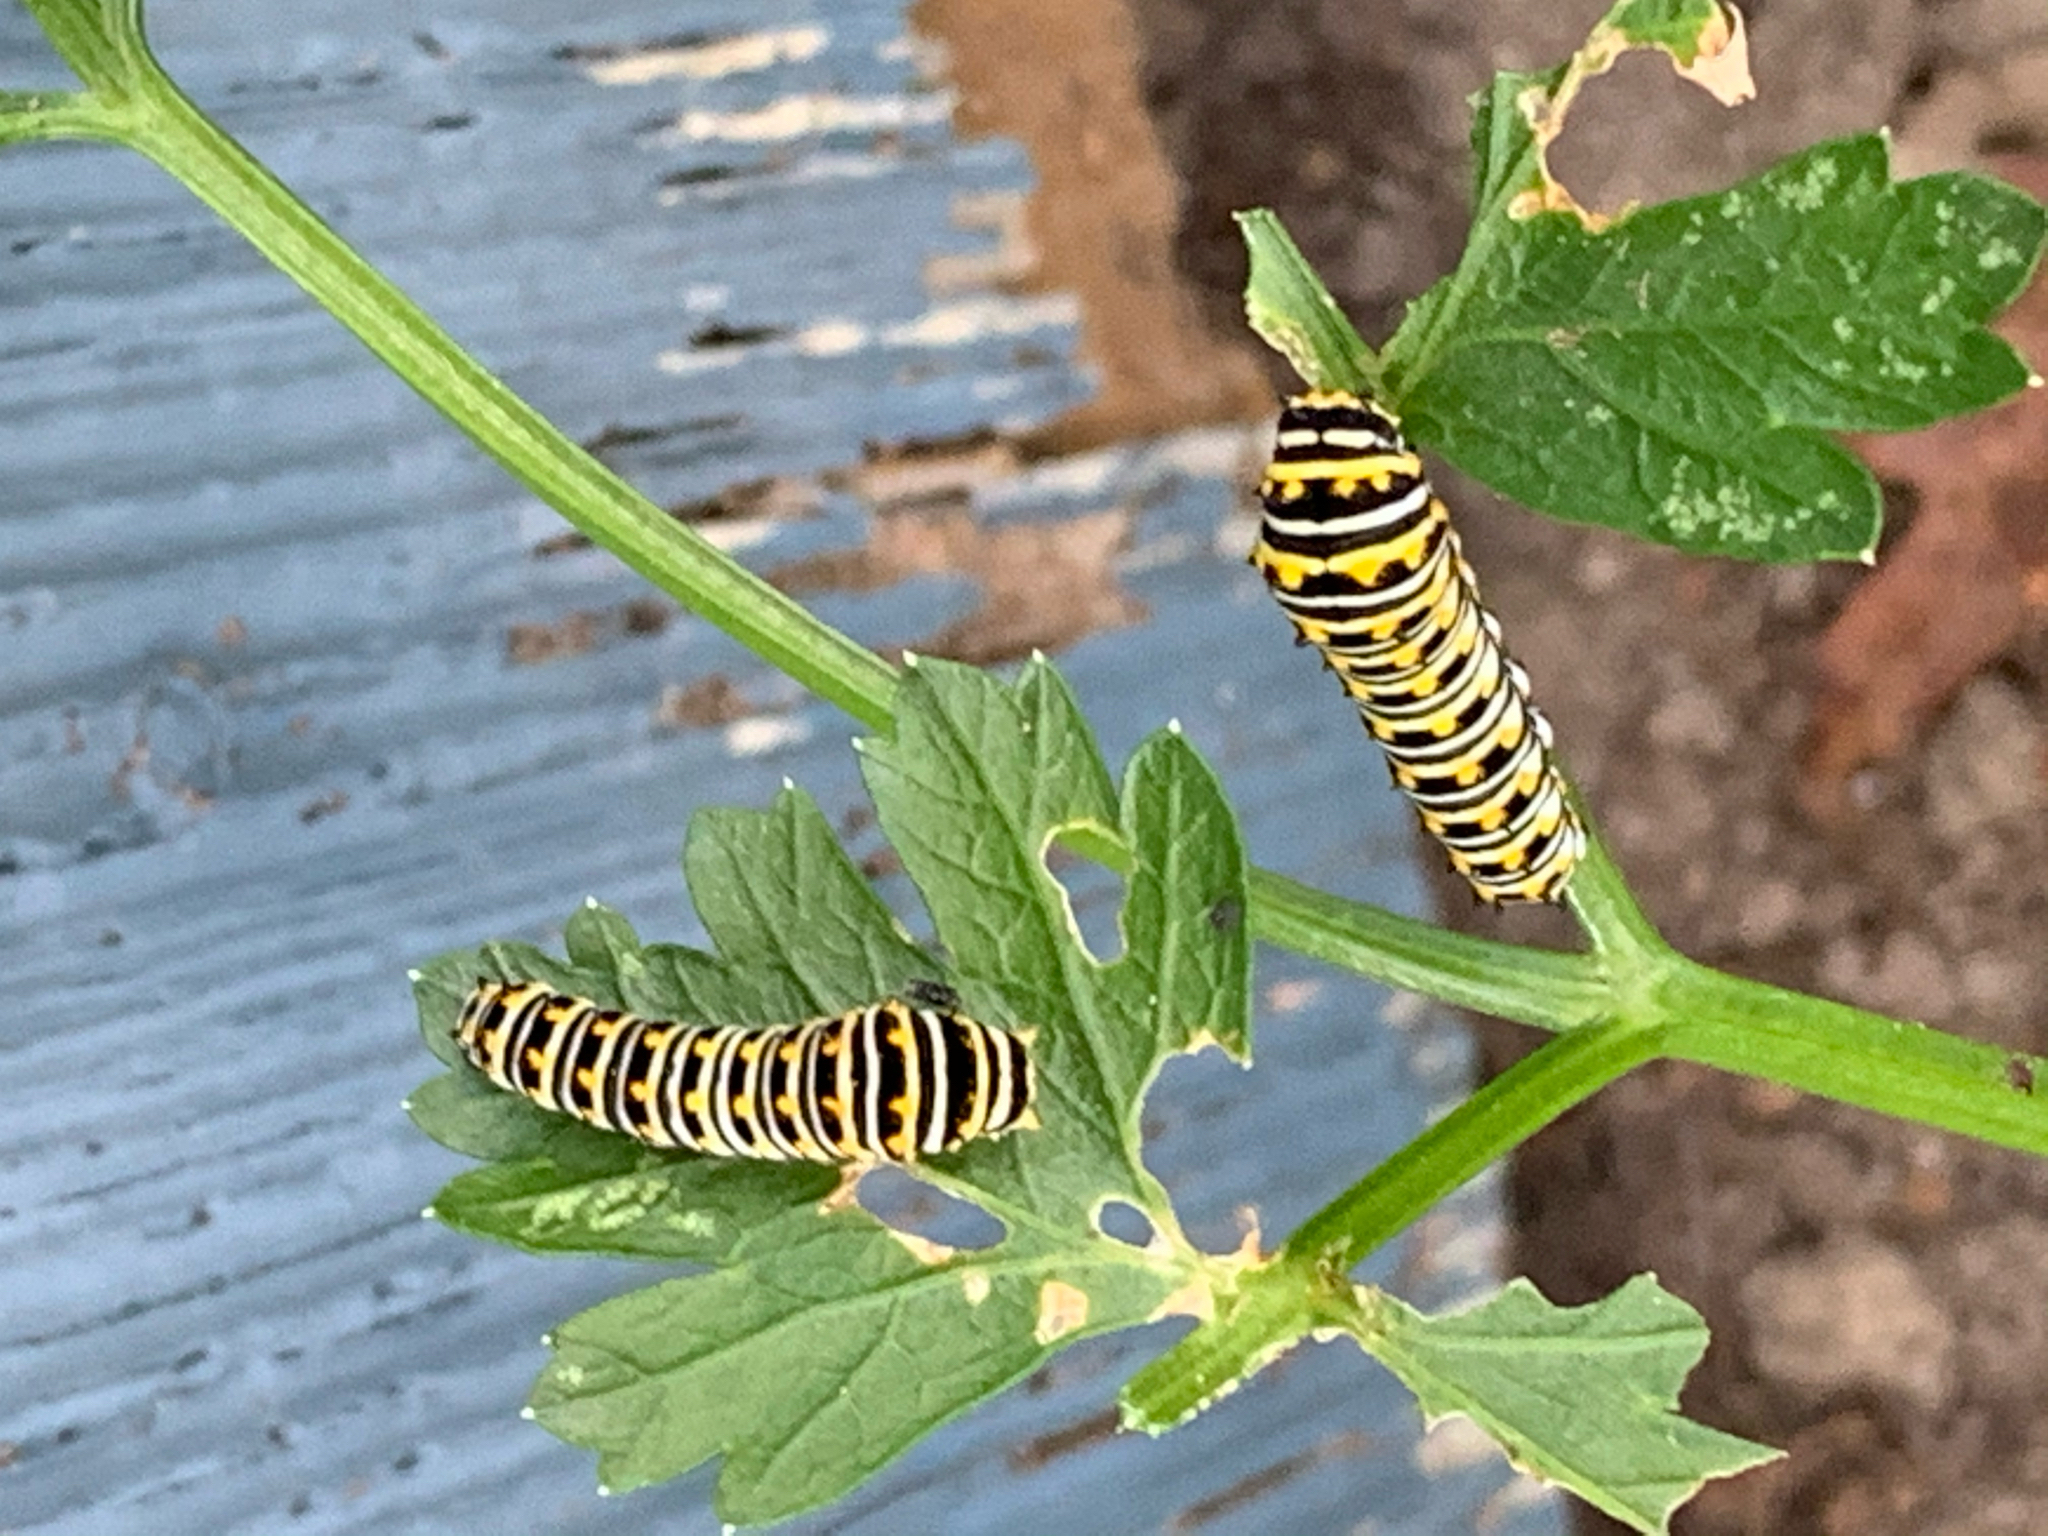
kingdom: Animalia
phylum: Arthropoda
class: Insecta
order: Lepidoptera
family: Papilionidae
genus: Papilio
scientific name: Papilio polyxenes
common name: Black swallowtail
